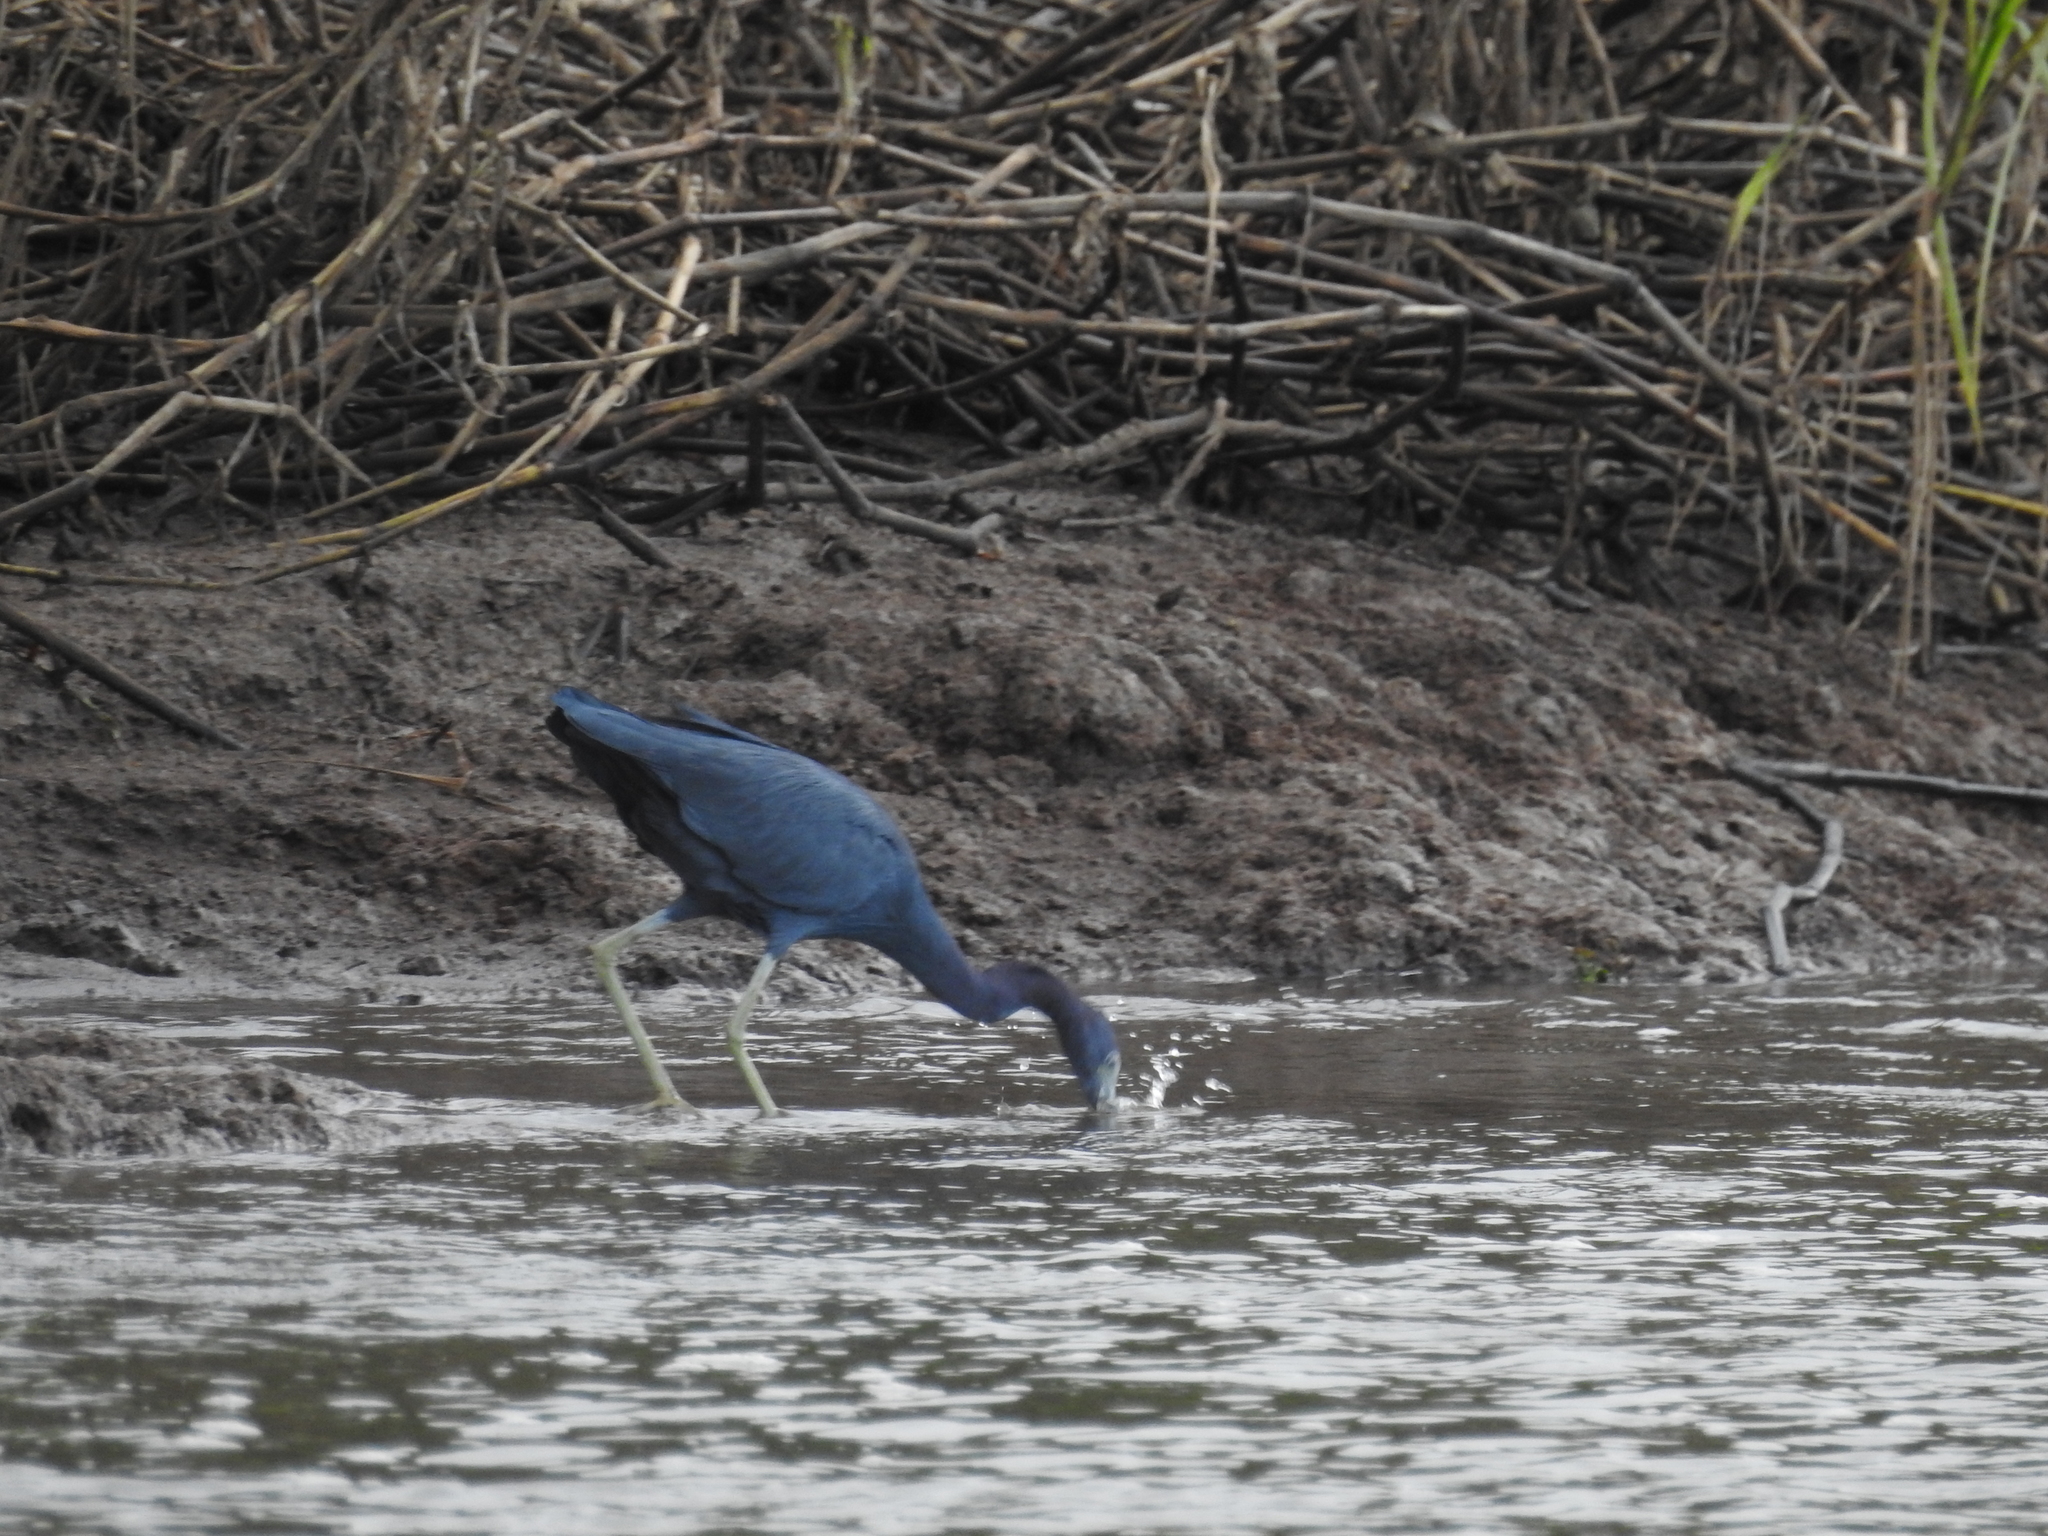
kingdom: Animalia
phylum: Chordata
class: Aves
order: Pelecaniformes
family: Ardeidae
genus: Egretta
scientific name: Egretta caerulea
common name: Little blue heron
